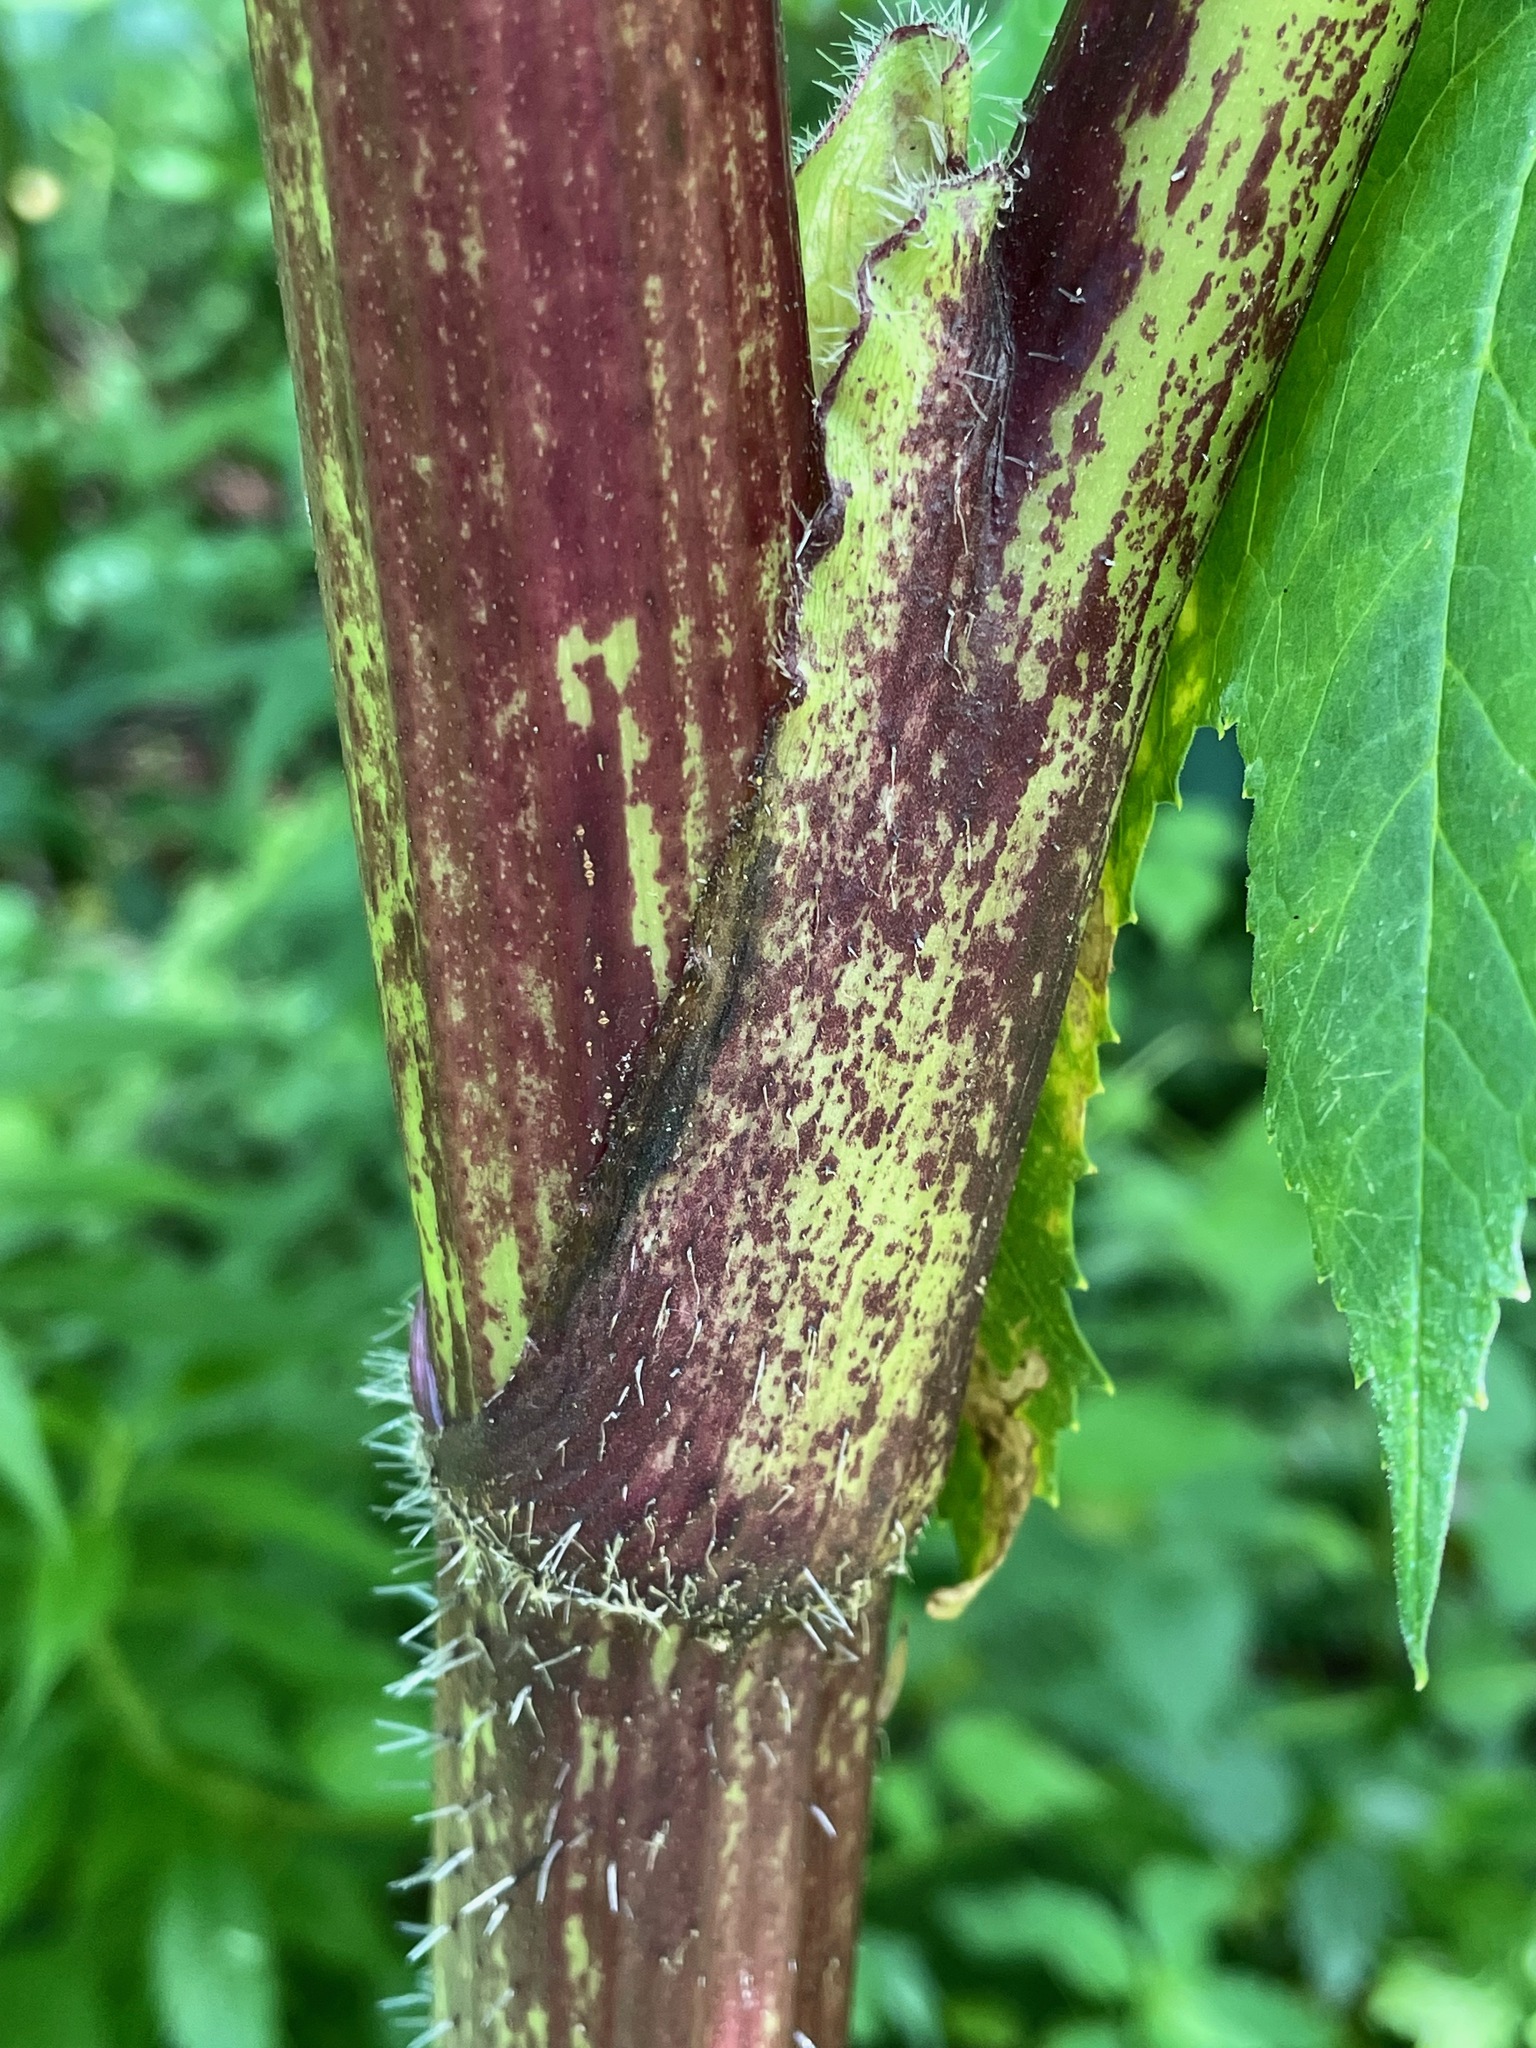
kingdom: Plantae
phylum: Tracheophyta
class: Magnoliopsida
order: Apiales
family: Apiaceae
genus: Heracleum
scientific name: Heracleum mantegazzianum
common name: Giant hogweed
